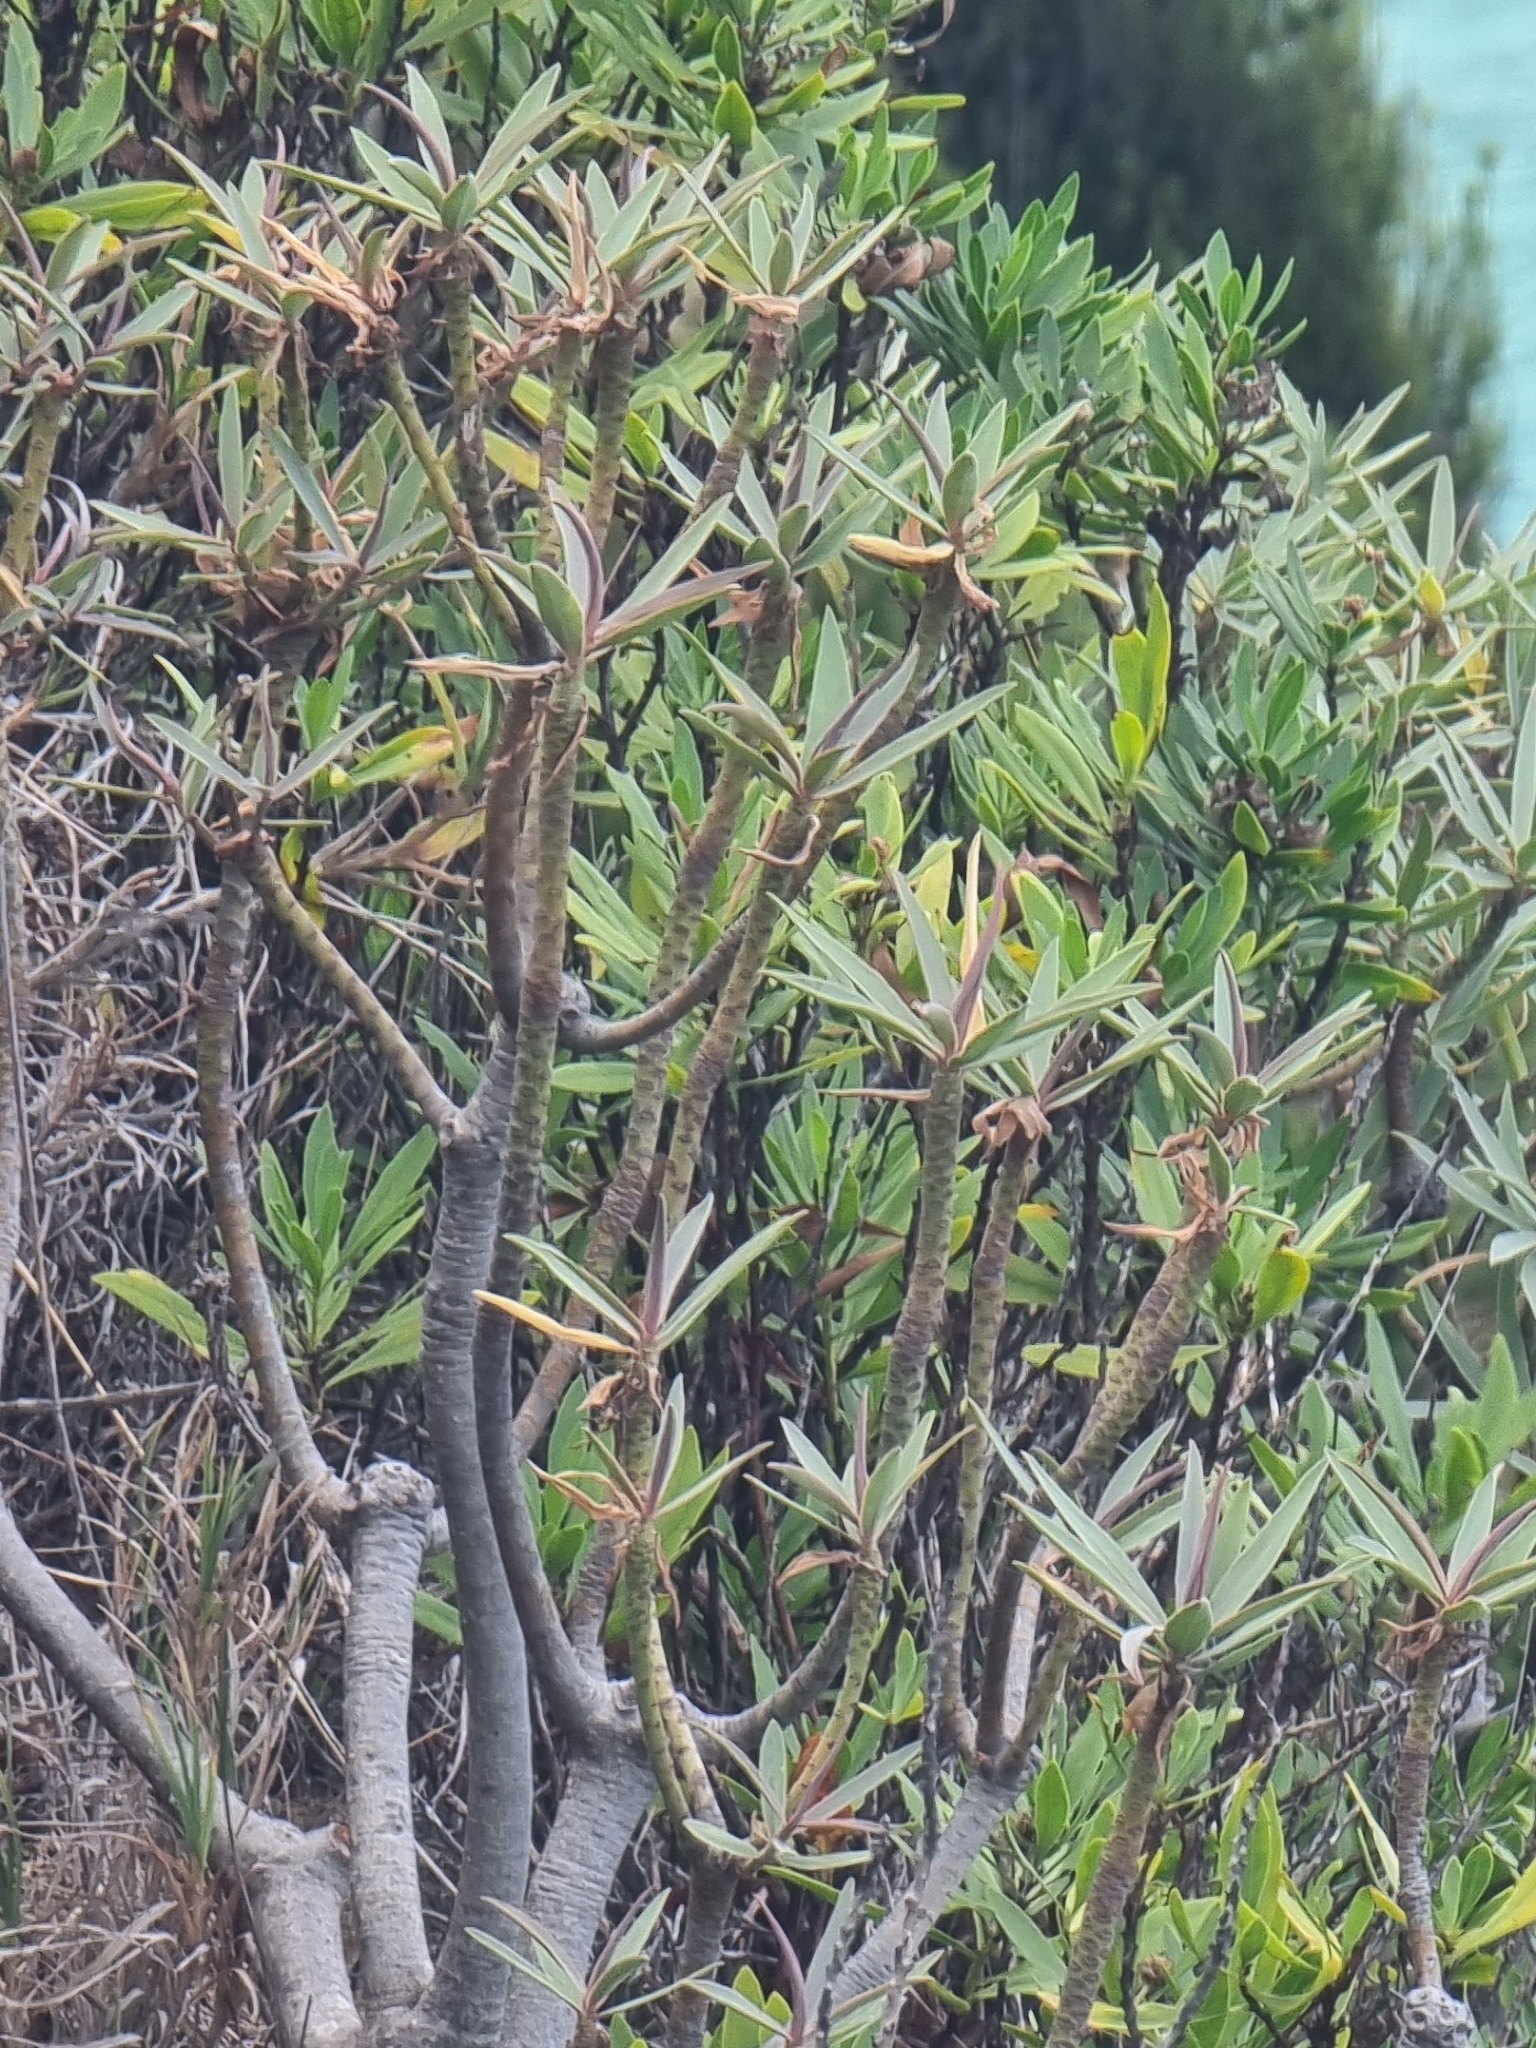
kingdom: Plantae
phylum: Tracheophyta
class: Magnoliopsida
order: Malpighiales
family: Euphorbiaceae
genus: Euphorbia
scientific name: Euphorbia piscatoria
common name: Fish-stunning spurge
